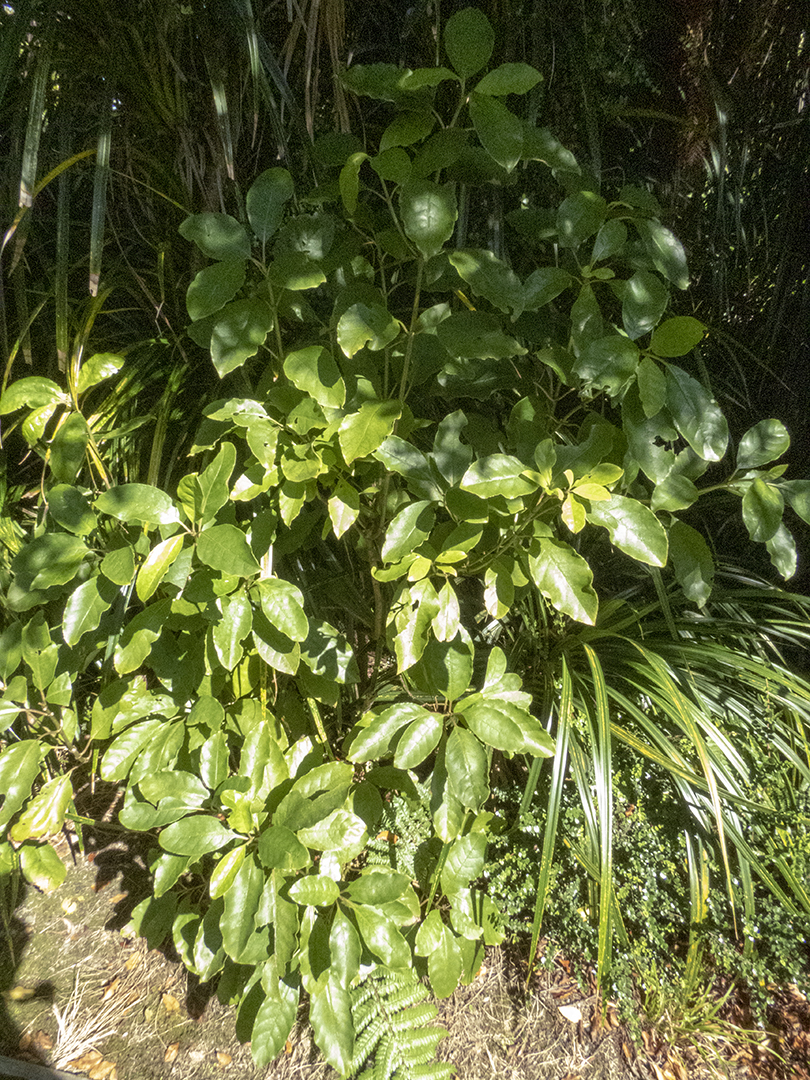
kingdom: Plantae
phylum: Tracheophyta
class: Magnoliopsida
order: Gentianales
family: Rubiaceae
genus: Coprosma
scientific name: Coprosma autumnalis
